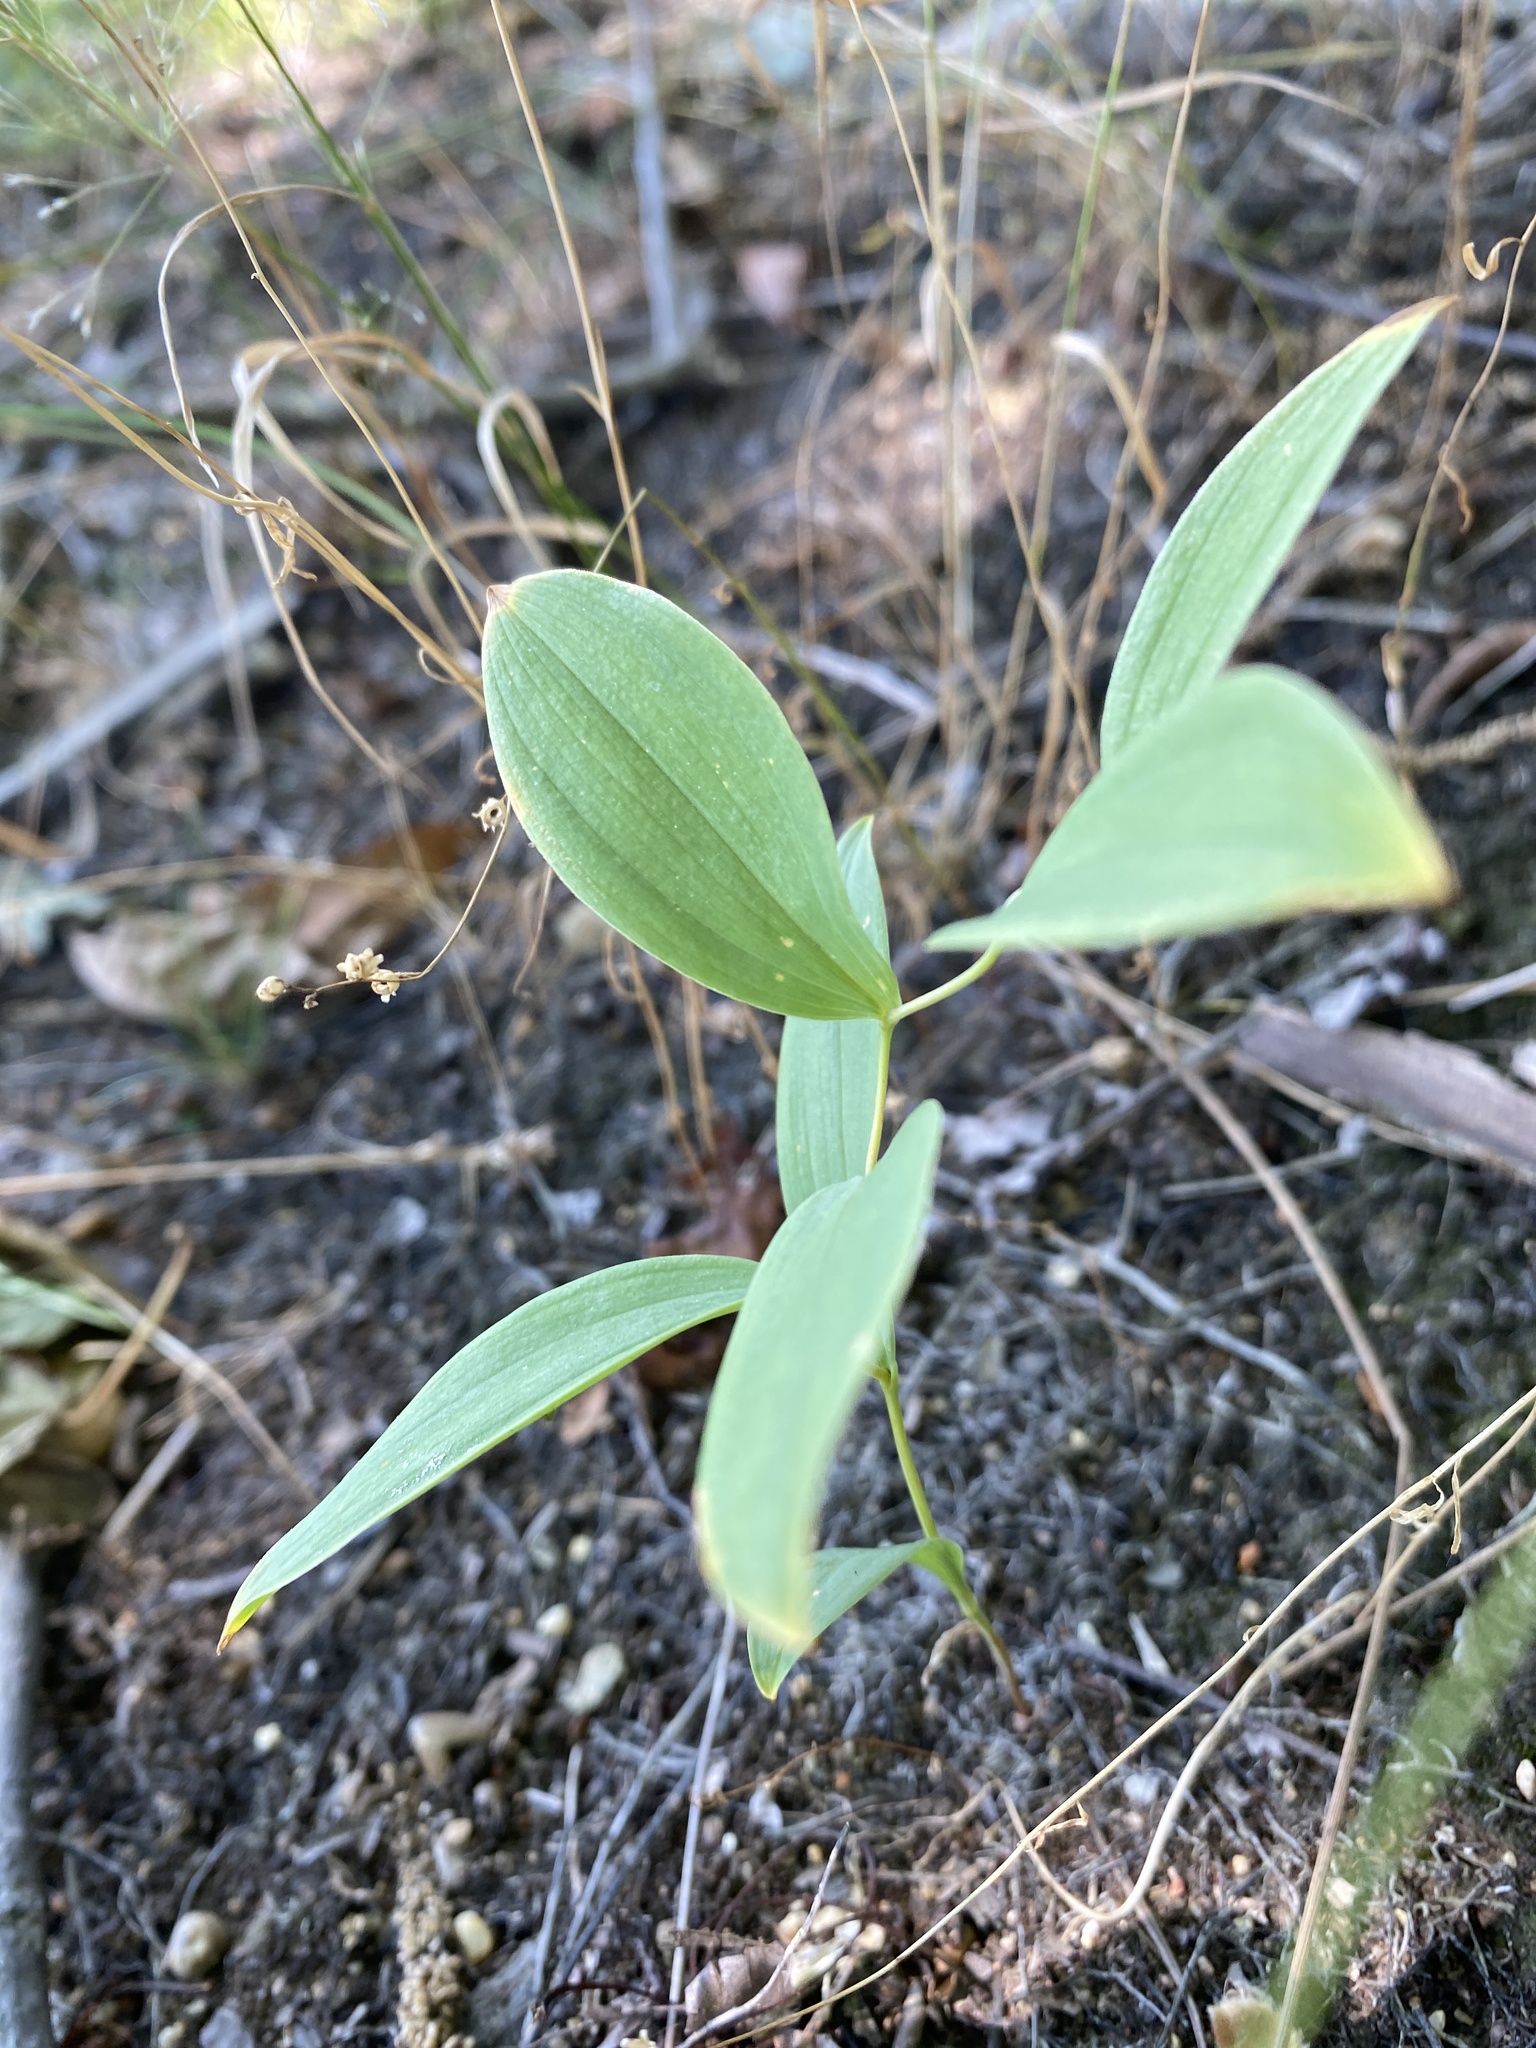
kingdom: Plantae
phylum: Tracheophyta
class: Liliopsida
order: Liliales
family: Colchicaceae
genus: Uvularia
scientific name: Uvularia sessilifolia
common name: Straw-lily
